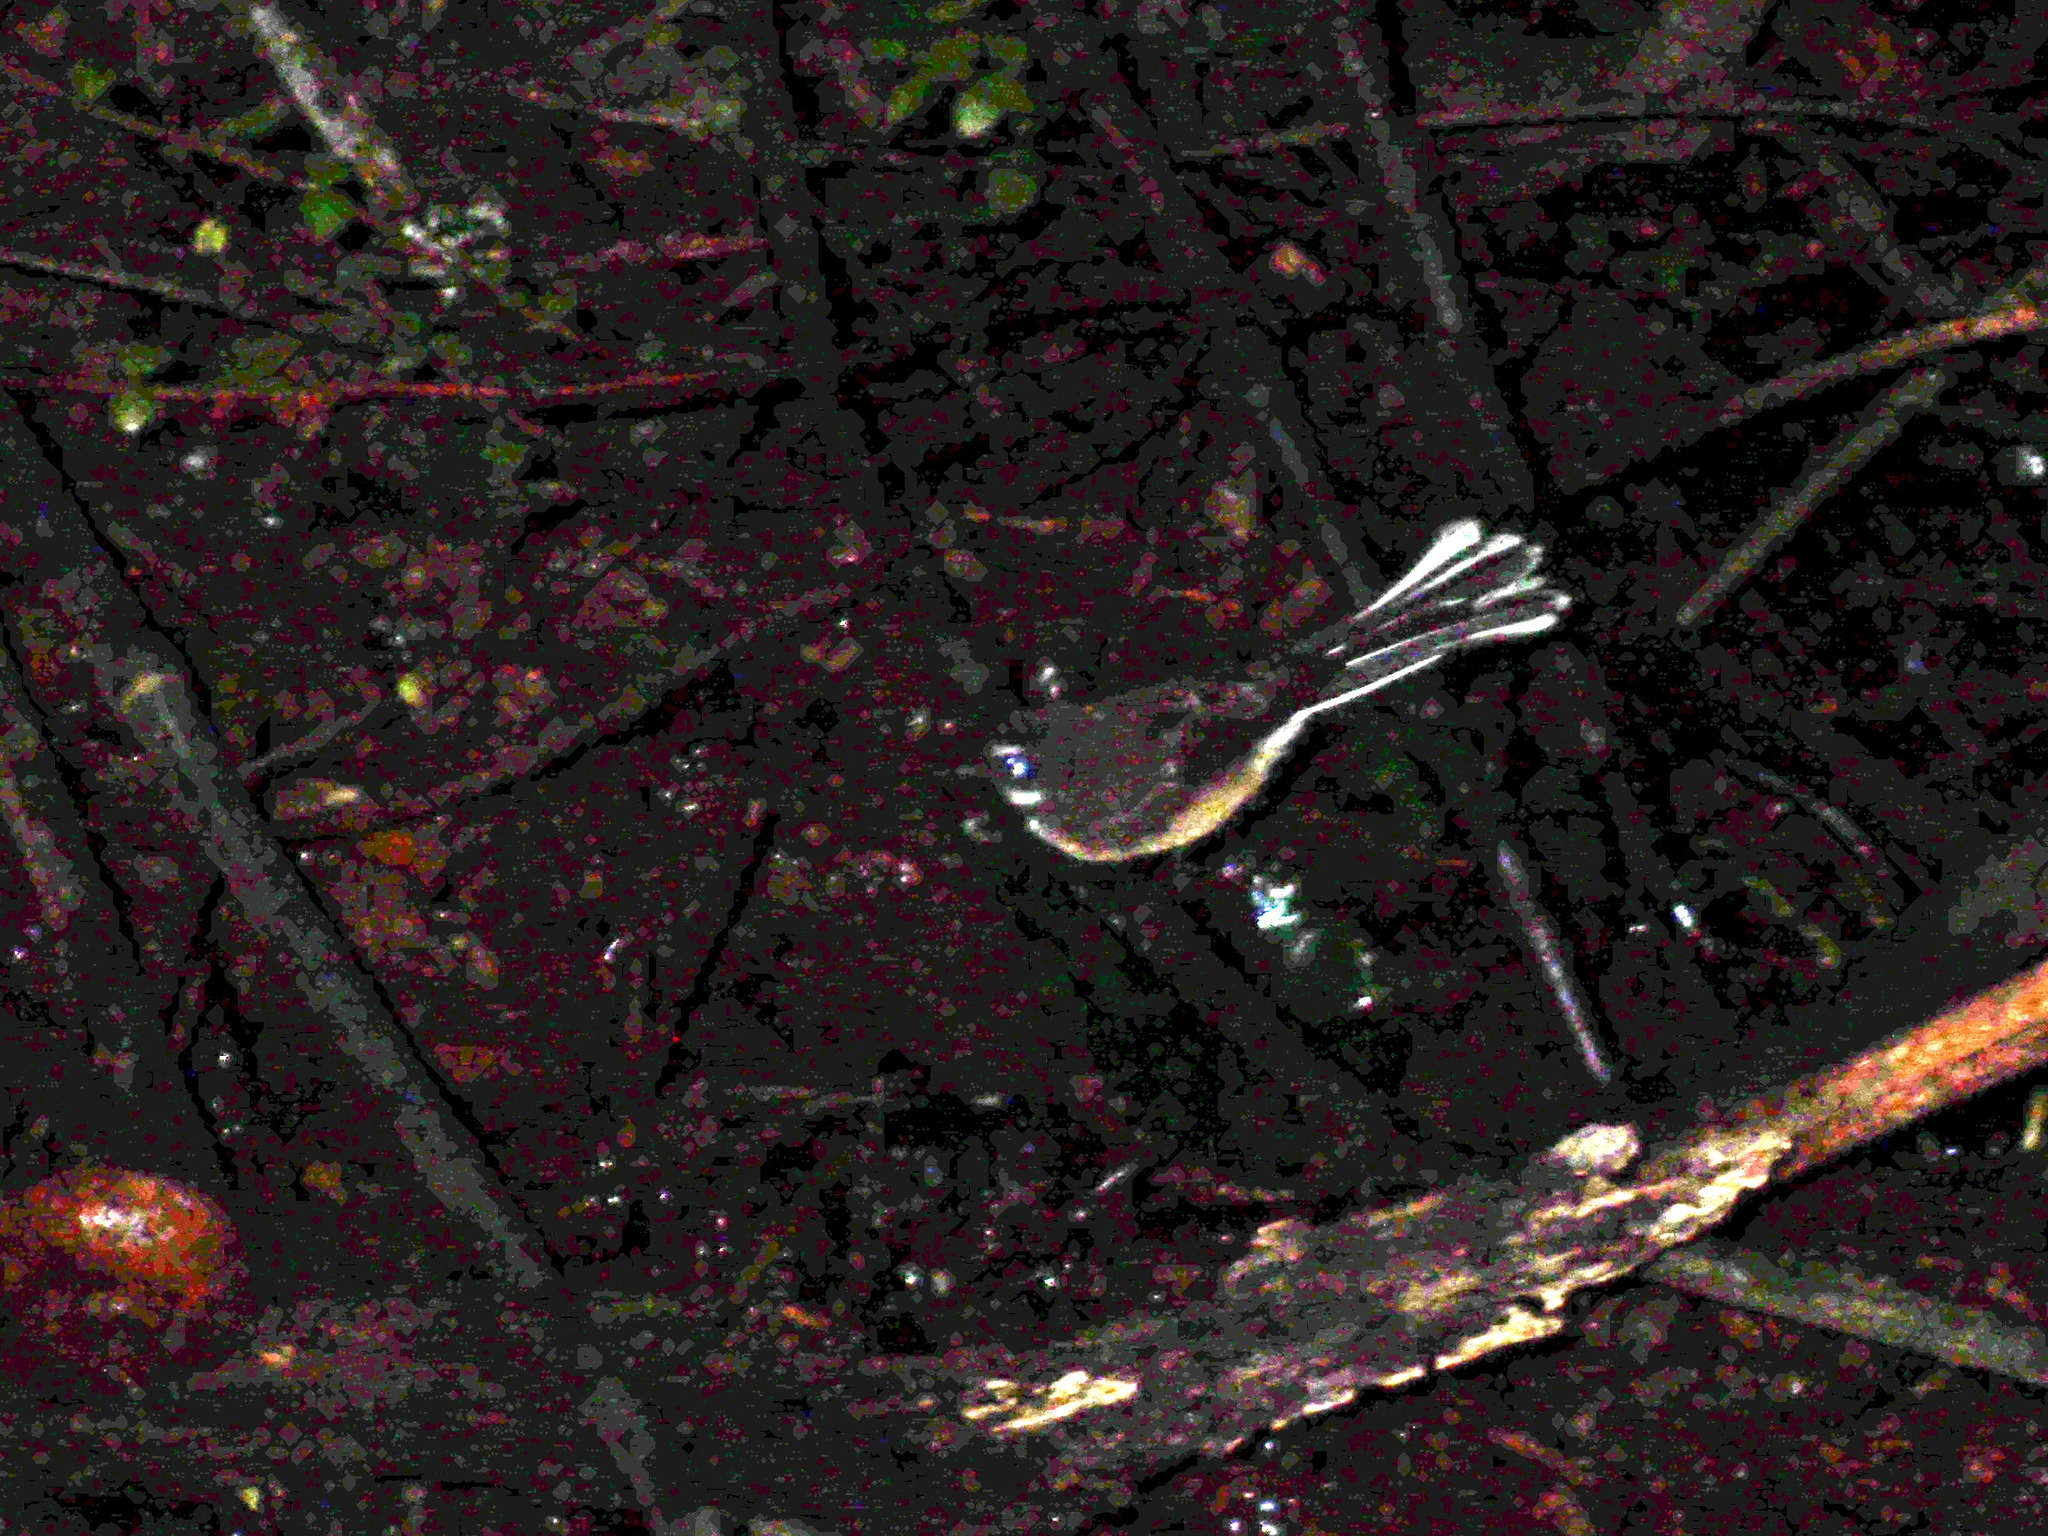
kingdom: Animalia
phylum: Chordata
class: Aves
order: Passeriformes
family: Rhipiduridae
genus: Rhipidura
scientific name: Rhipidura fuliginosa
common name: New zealand fantail
